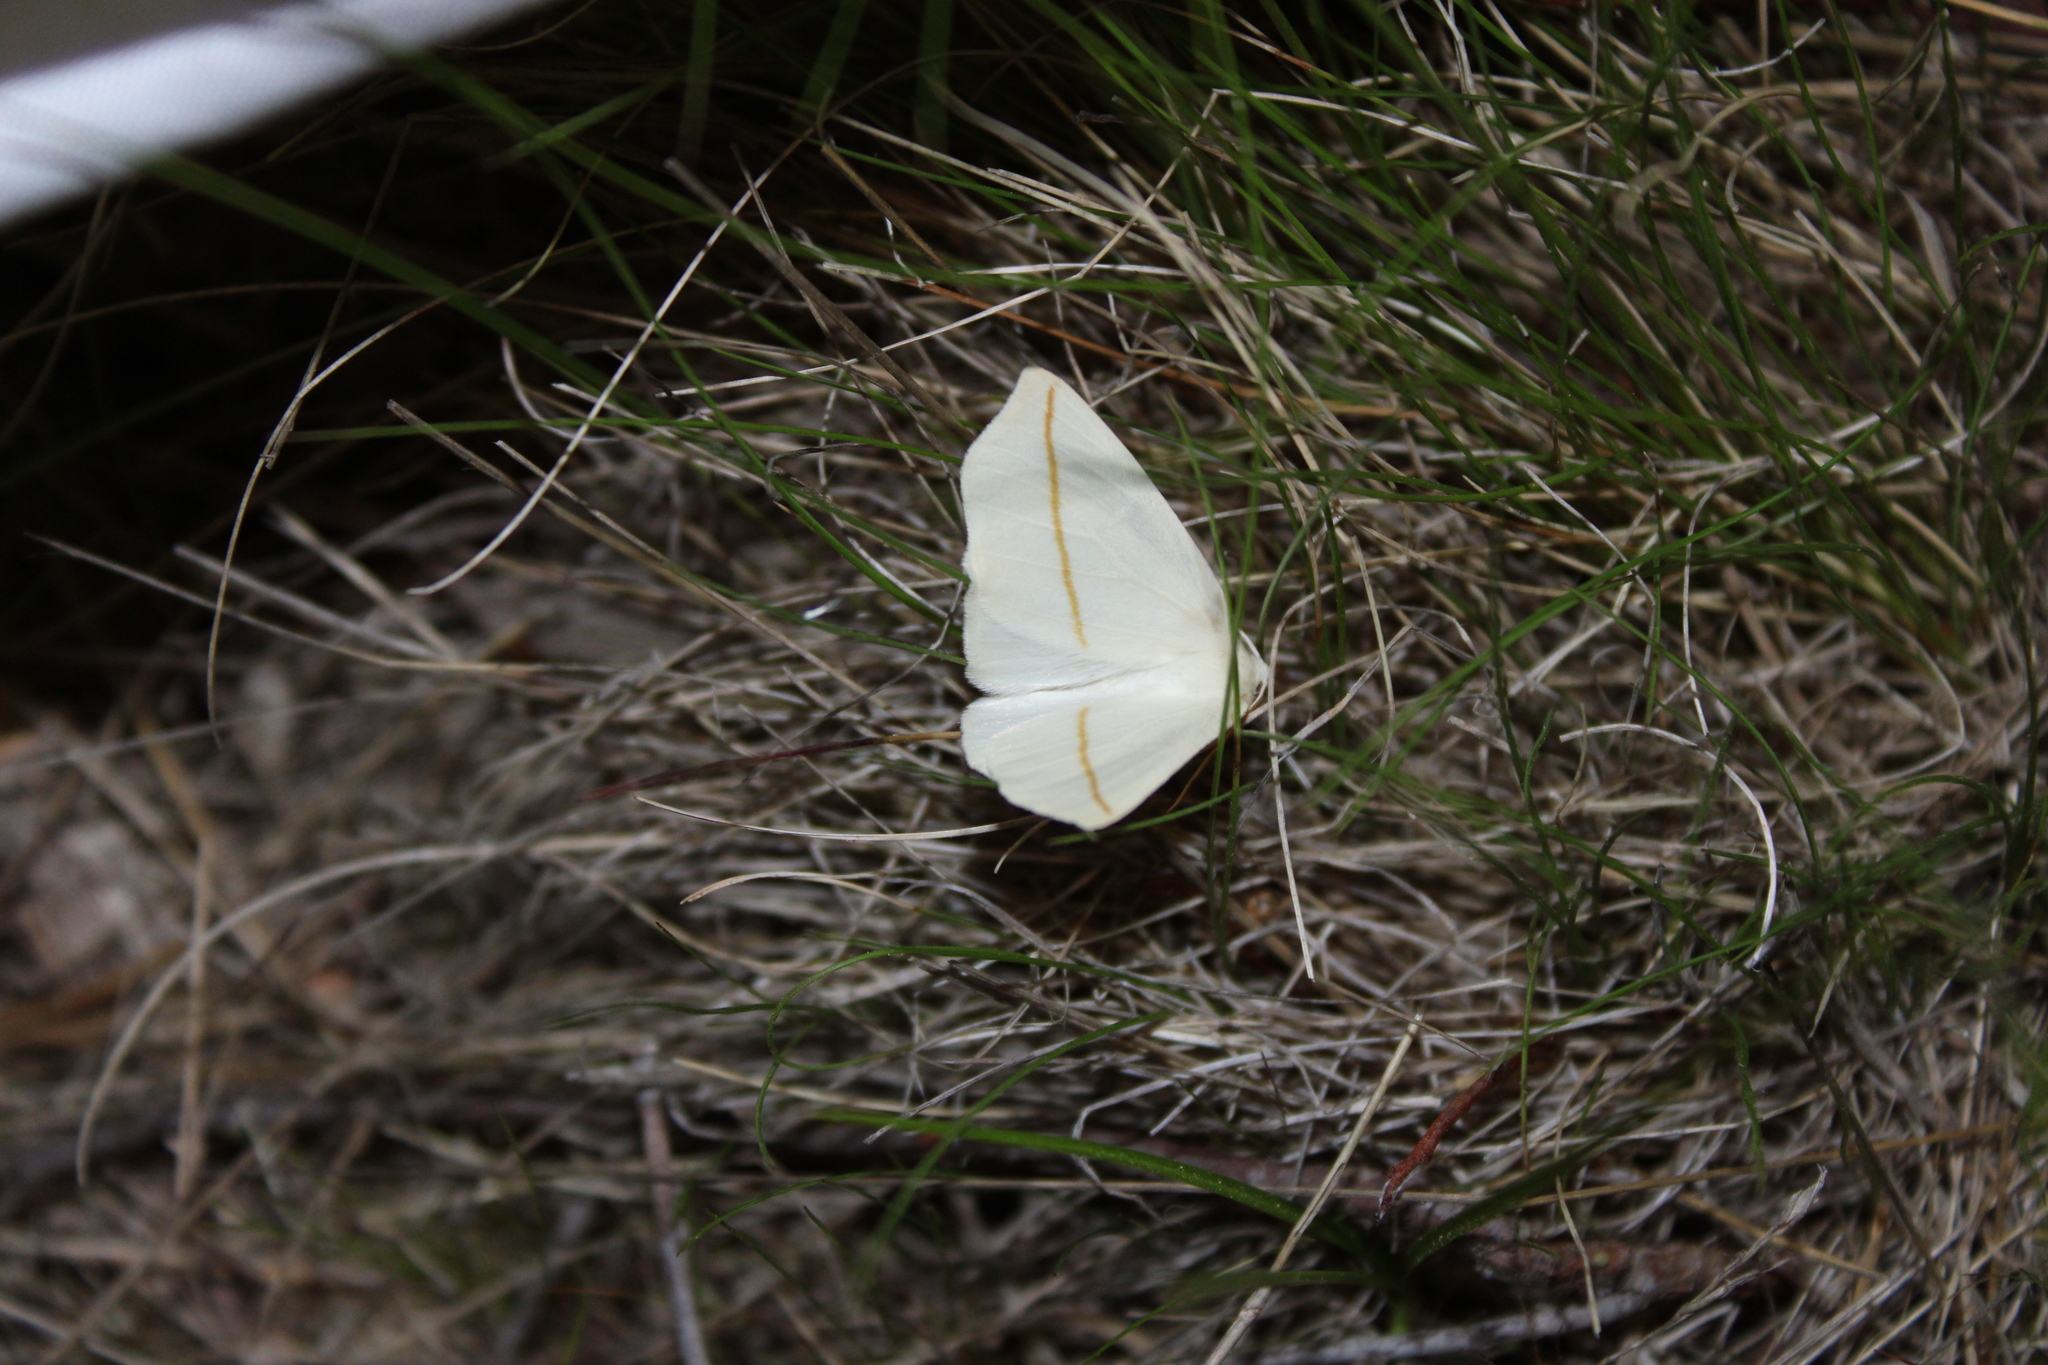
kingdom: Animalia
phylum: Arthropoda
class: Insecta
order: Lepidoptera
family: Geometridae
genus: Tetracis
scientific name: Tetracis cachexiata
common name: White slant-line
